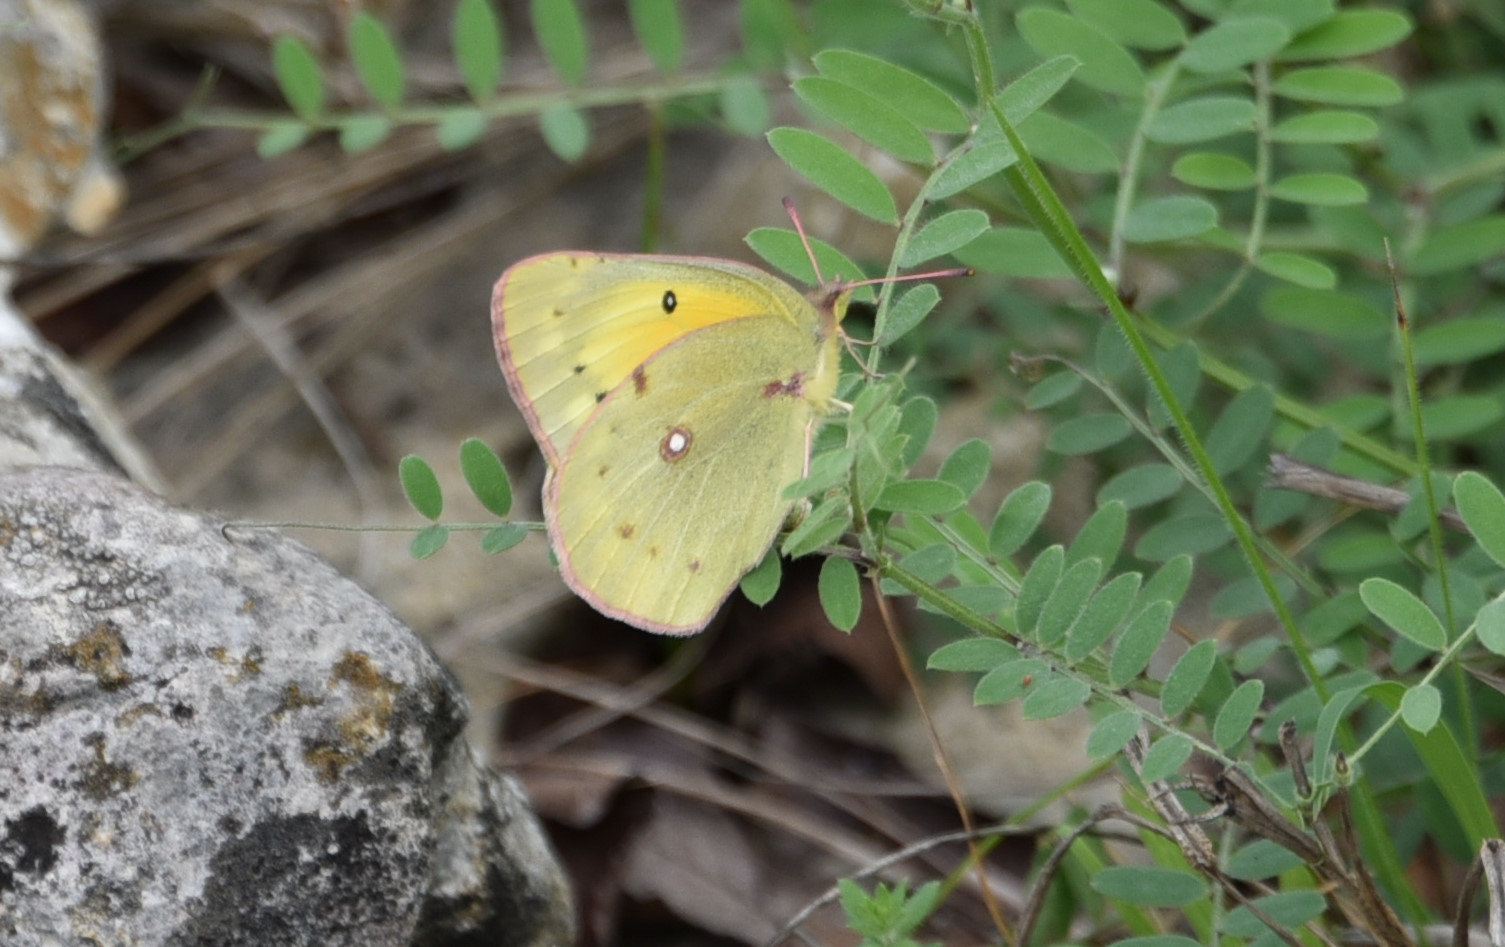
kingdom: Animalia
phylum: Arthropoda
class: Insecta
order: Lepidoptera
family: Pieridae
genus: Colias
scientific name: Colias eurytheme
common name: Alfalfa butterfly
